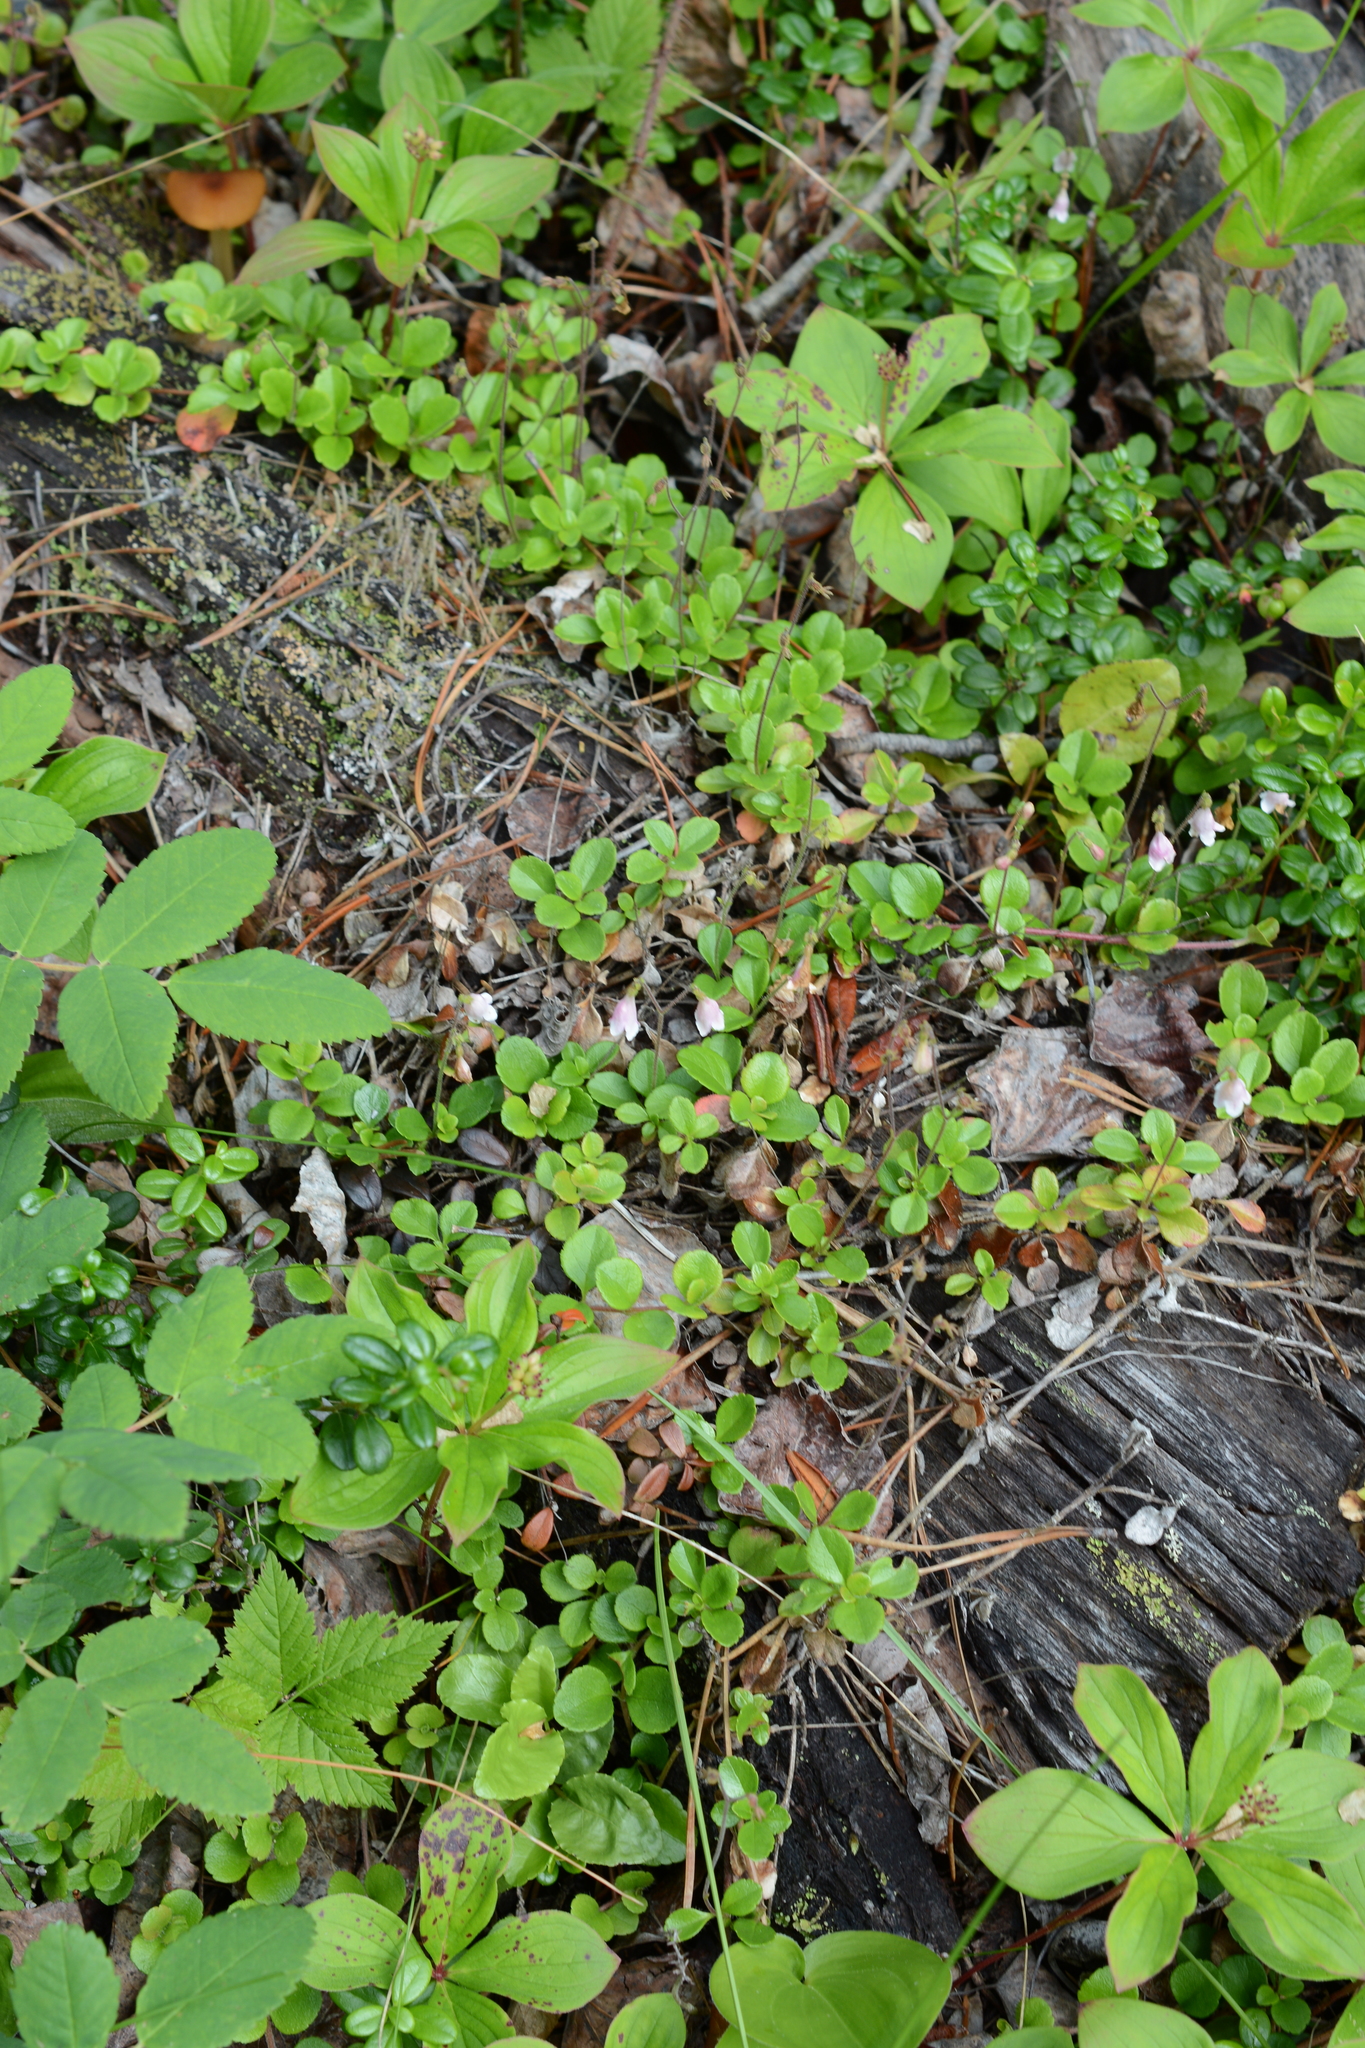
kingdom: Plantae
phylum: Tracheophyta
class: Magnoliopsida
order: Dipsacales
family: Caprifoliaceae
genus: Linnaea
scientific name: Linnaea borealis
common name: Twinflower
